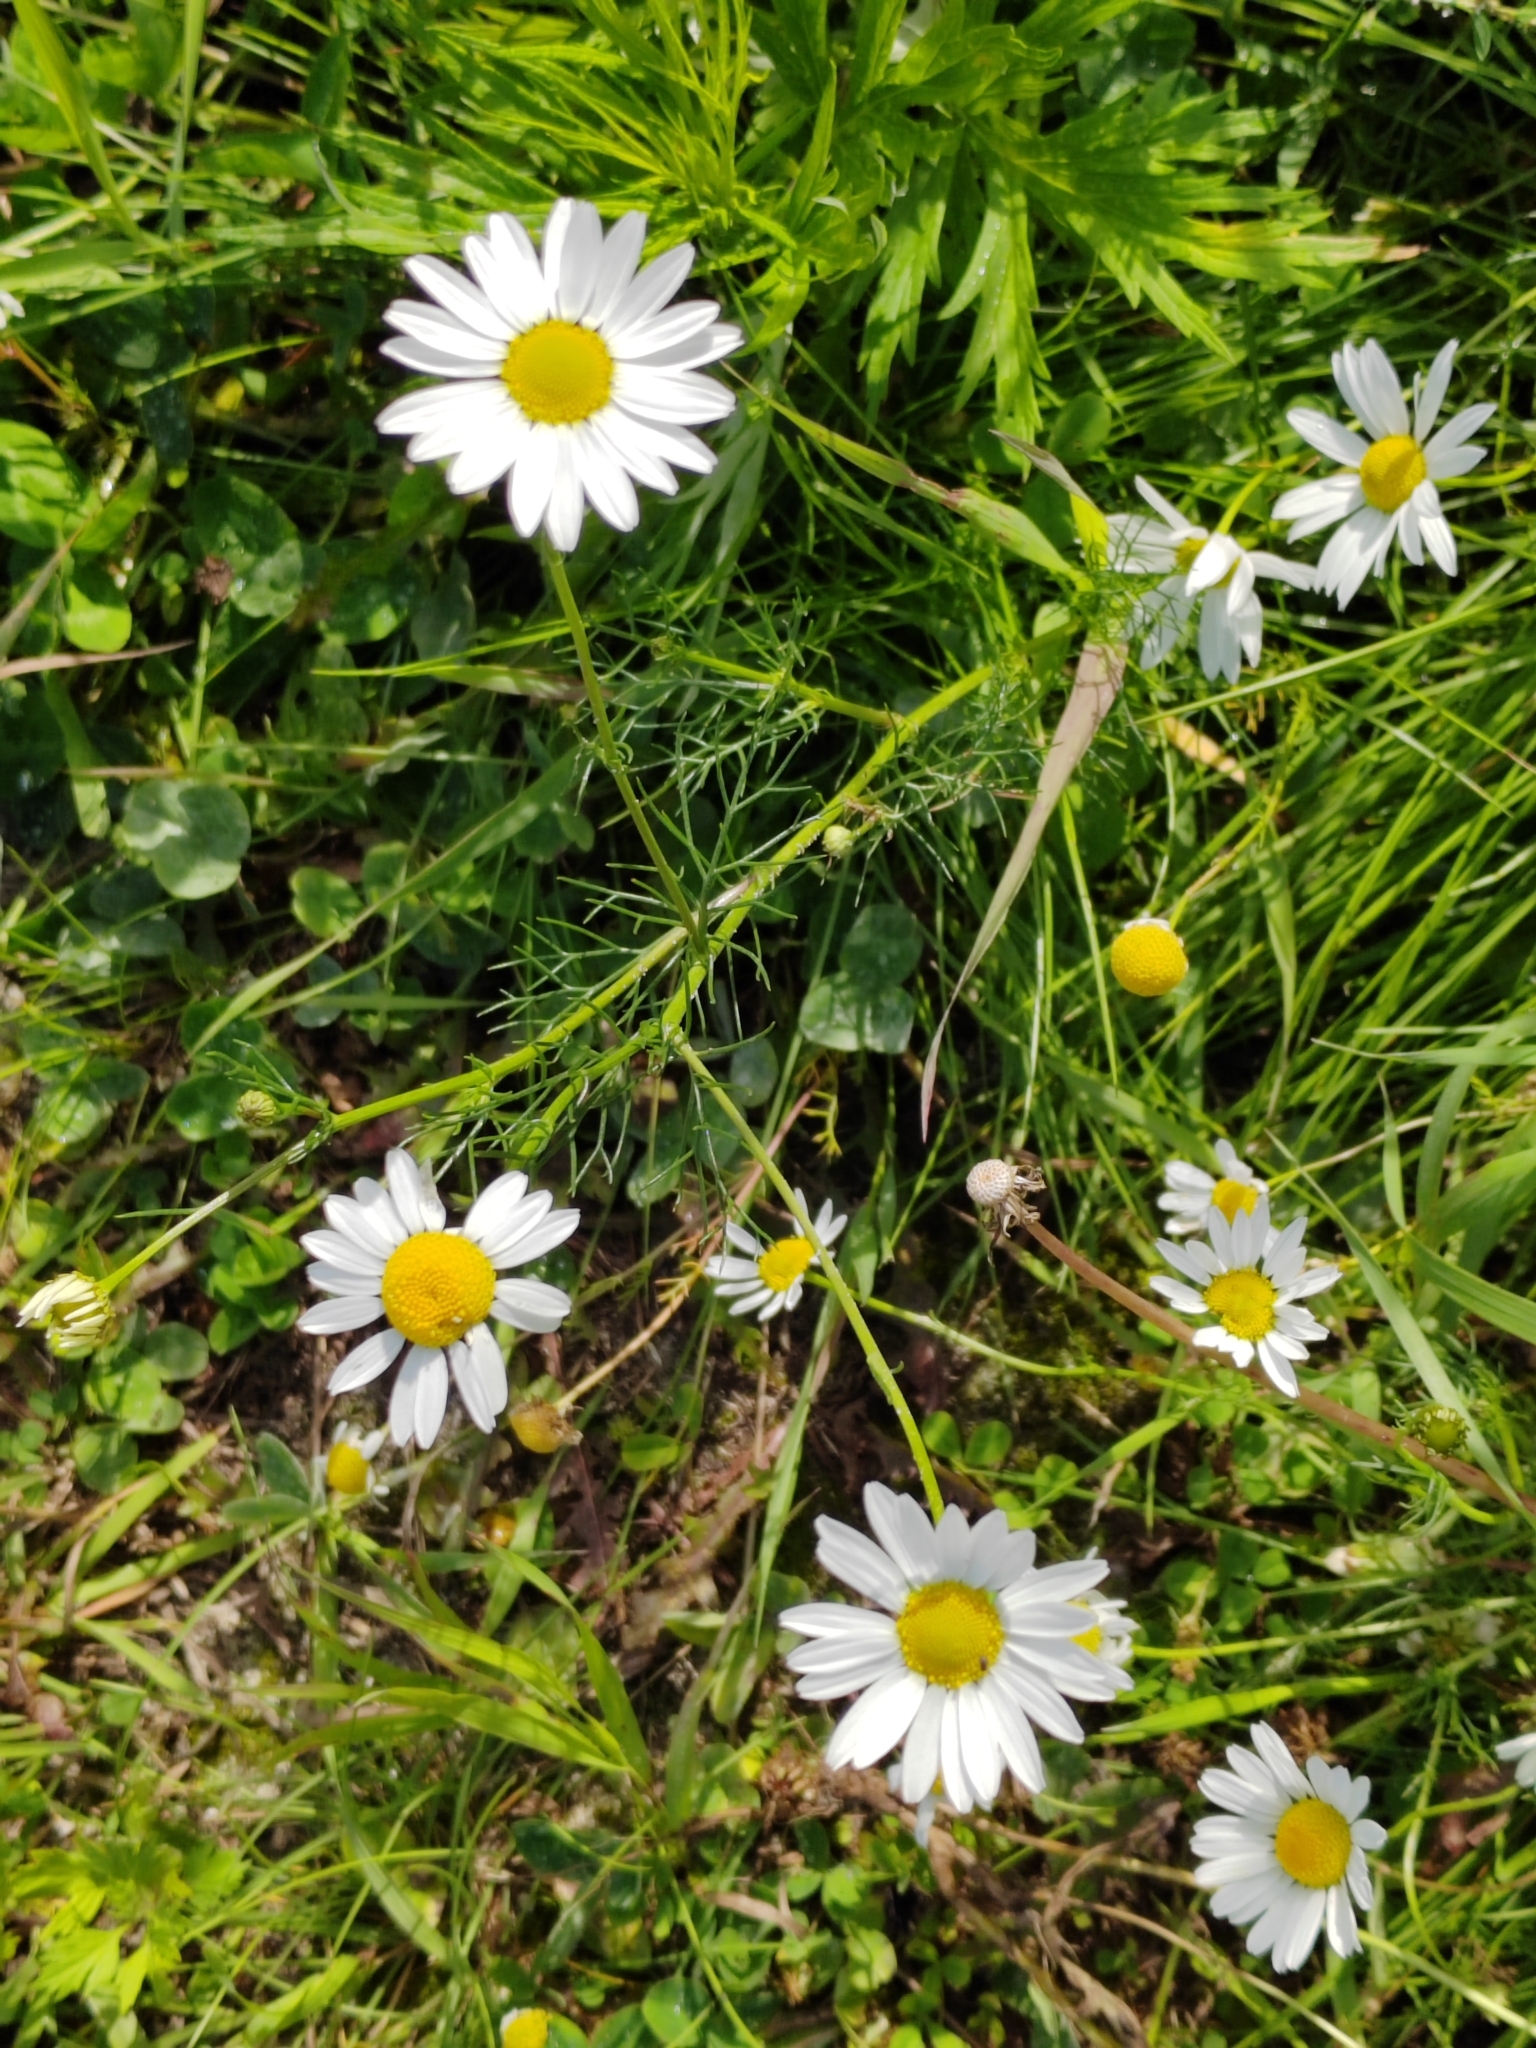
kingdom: Plantae
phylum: Tracheophyta
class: Magnoliopsida
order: Fabales
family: Fabaceae
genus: Trifolium
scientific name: Trifolium hybridum
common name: Alsike clover
